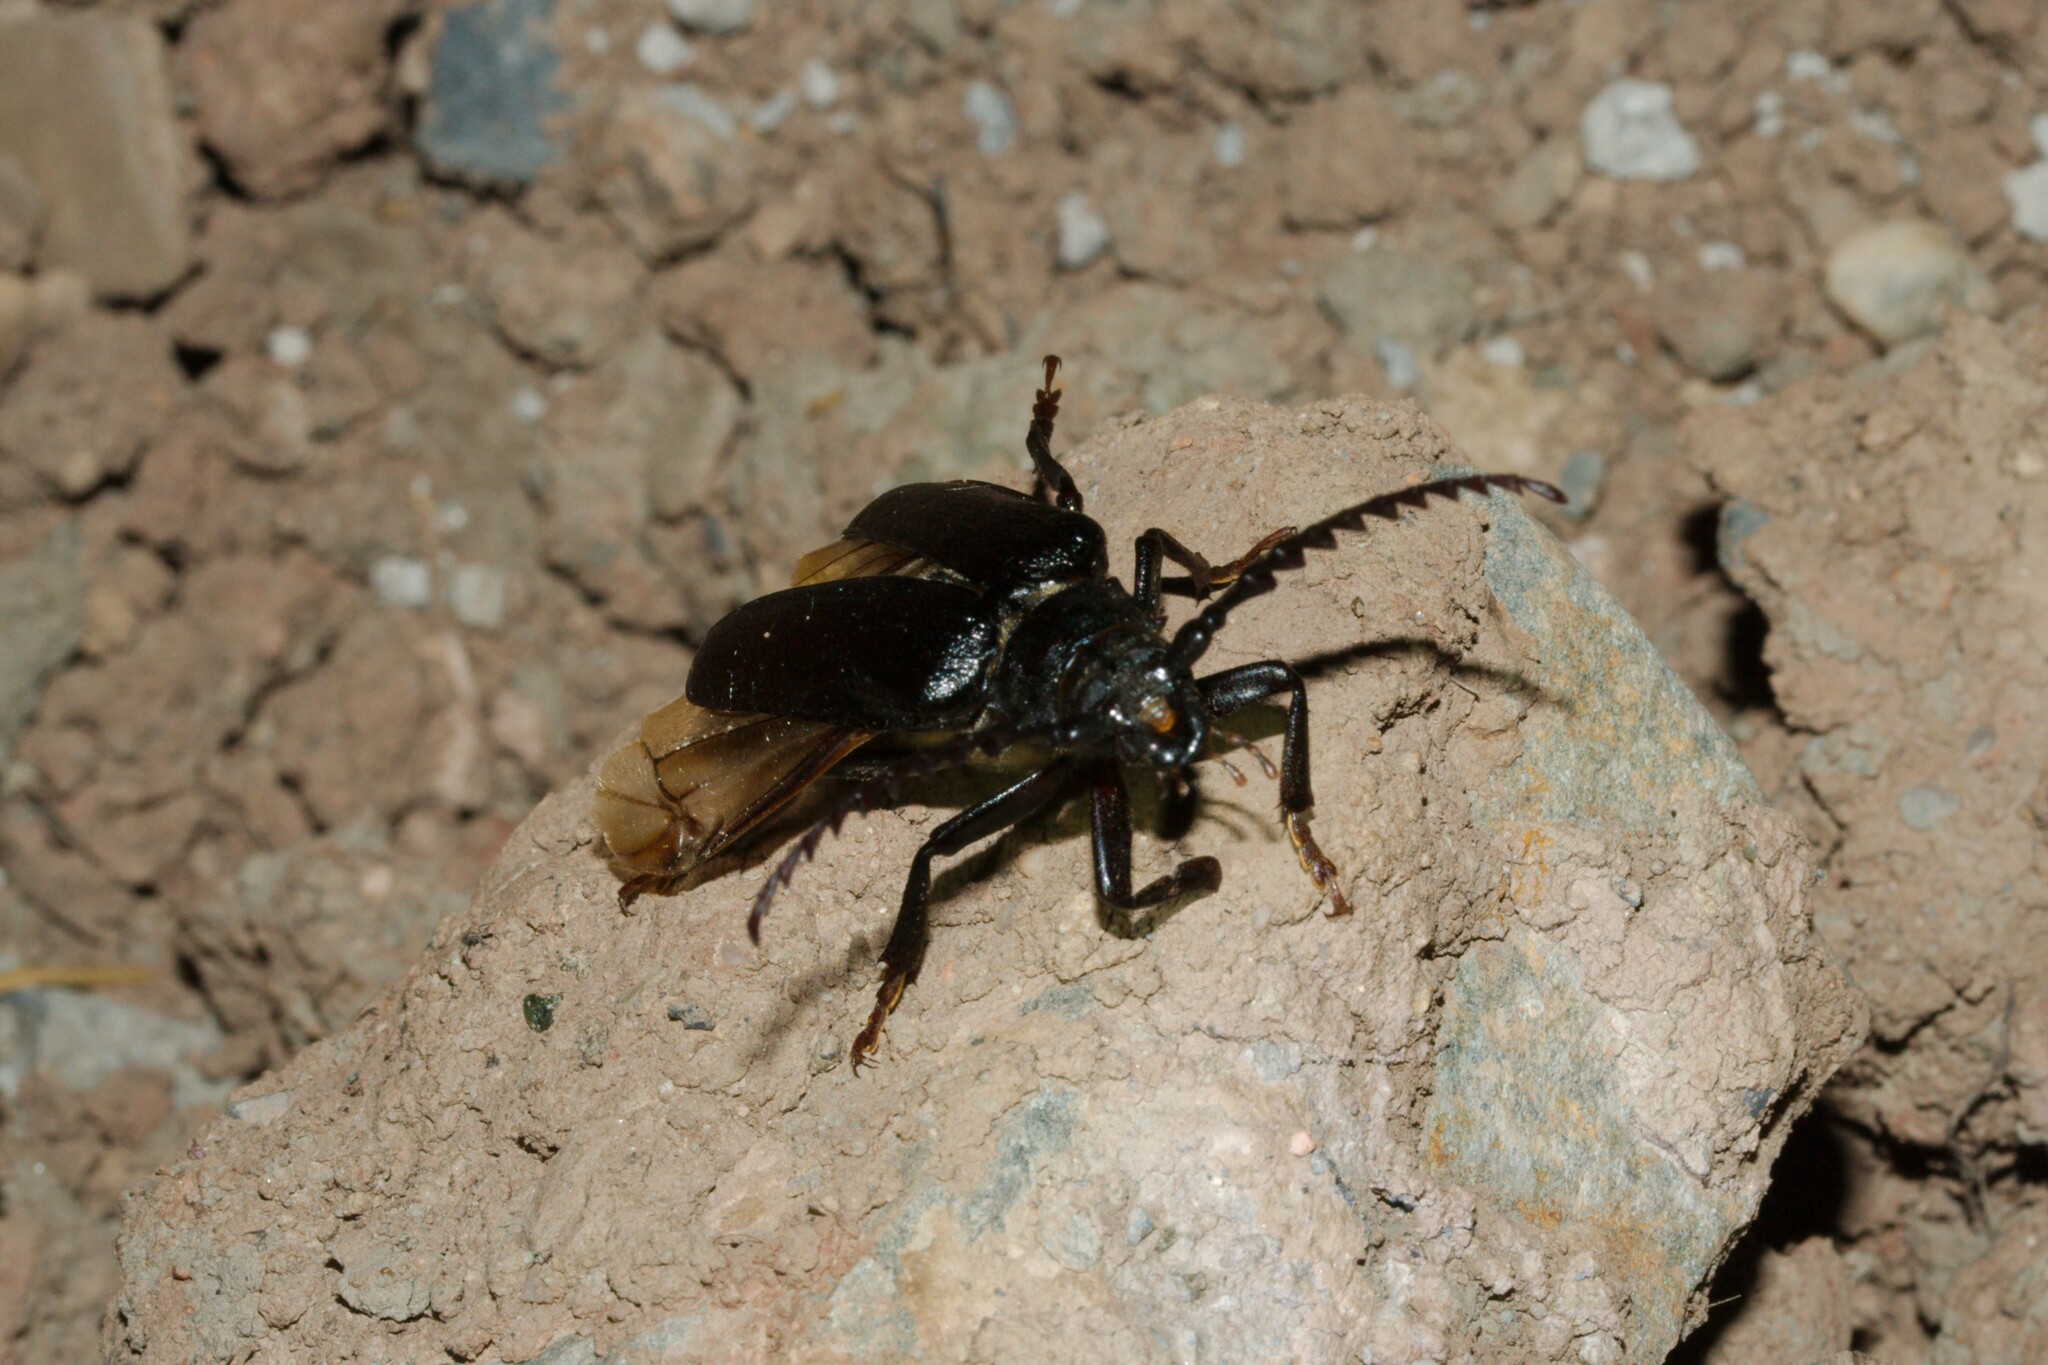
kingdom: Animalia
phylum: Arthropoda
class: Insecta
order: Coleoptera
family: Cerambycidae
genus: Prionus
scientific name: Prionus coriarius
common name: Tanner beetle
